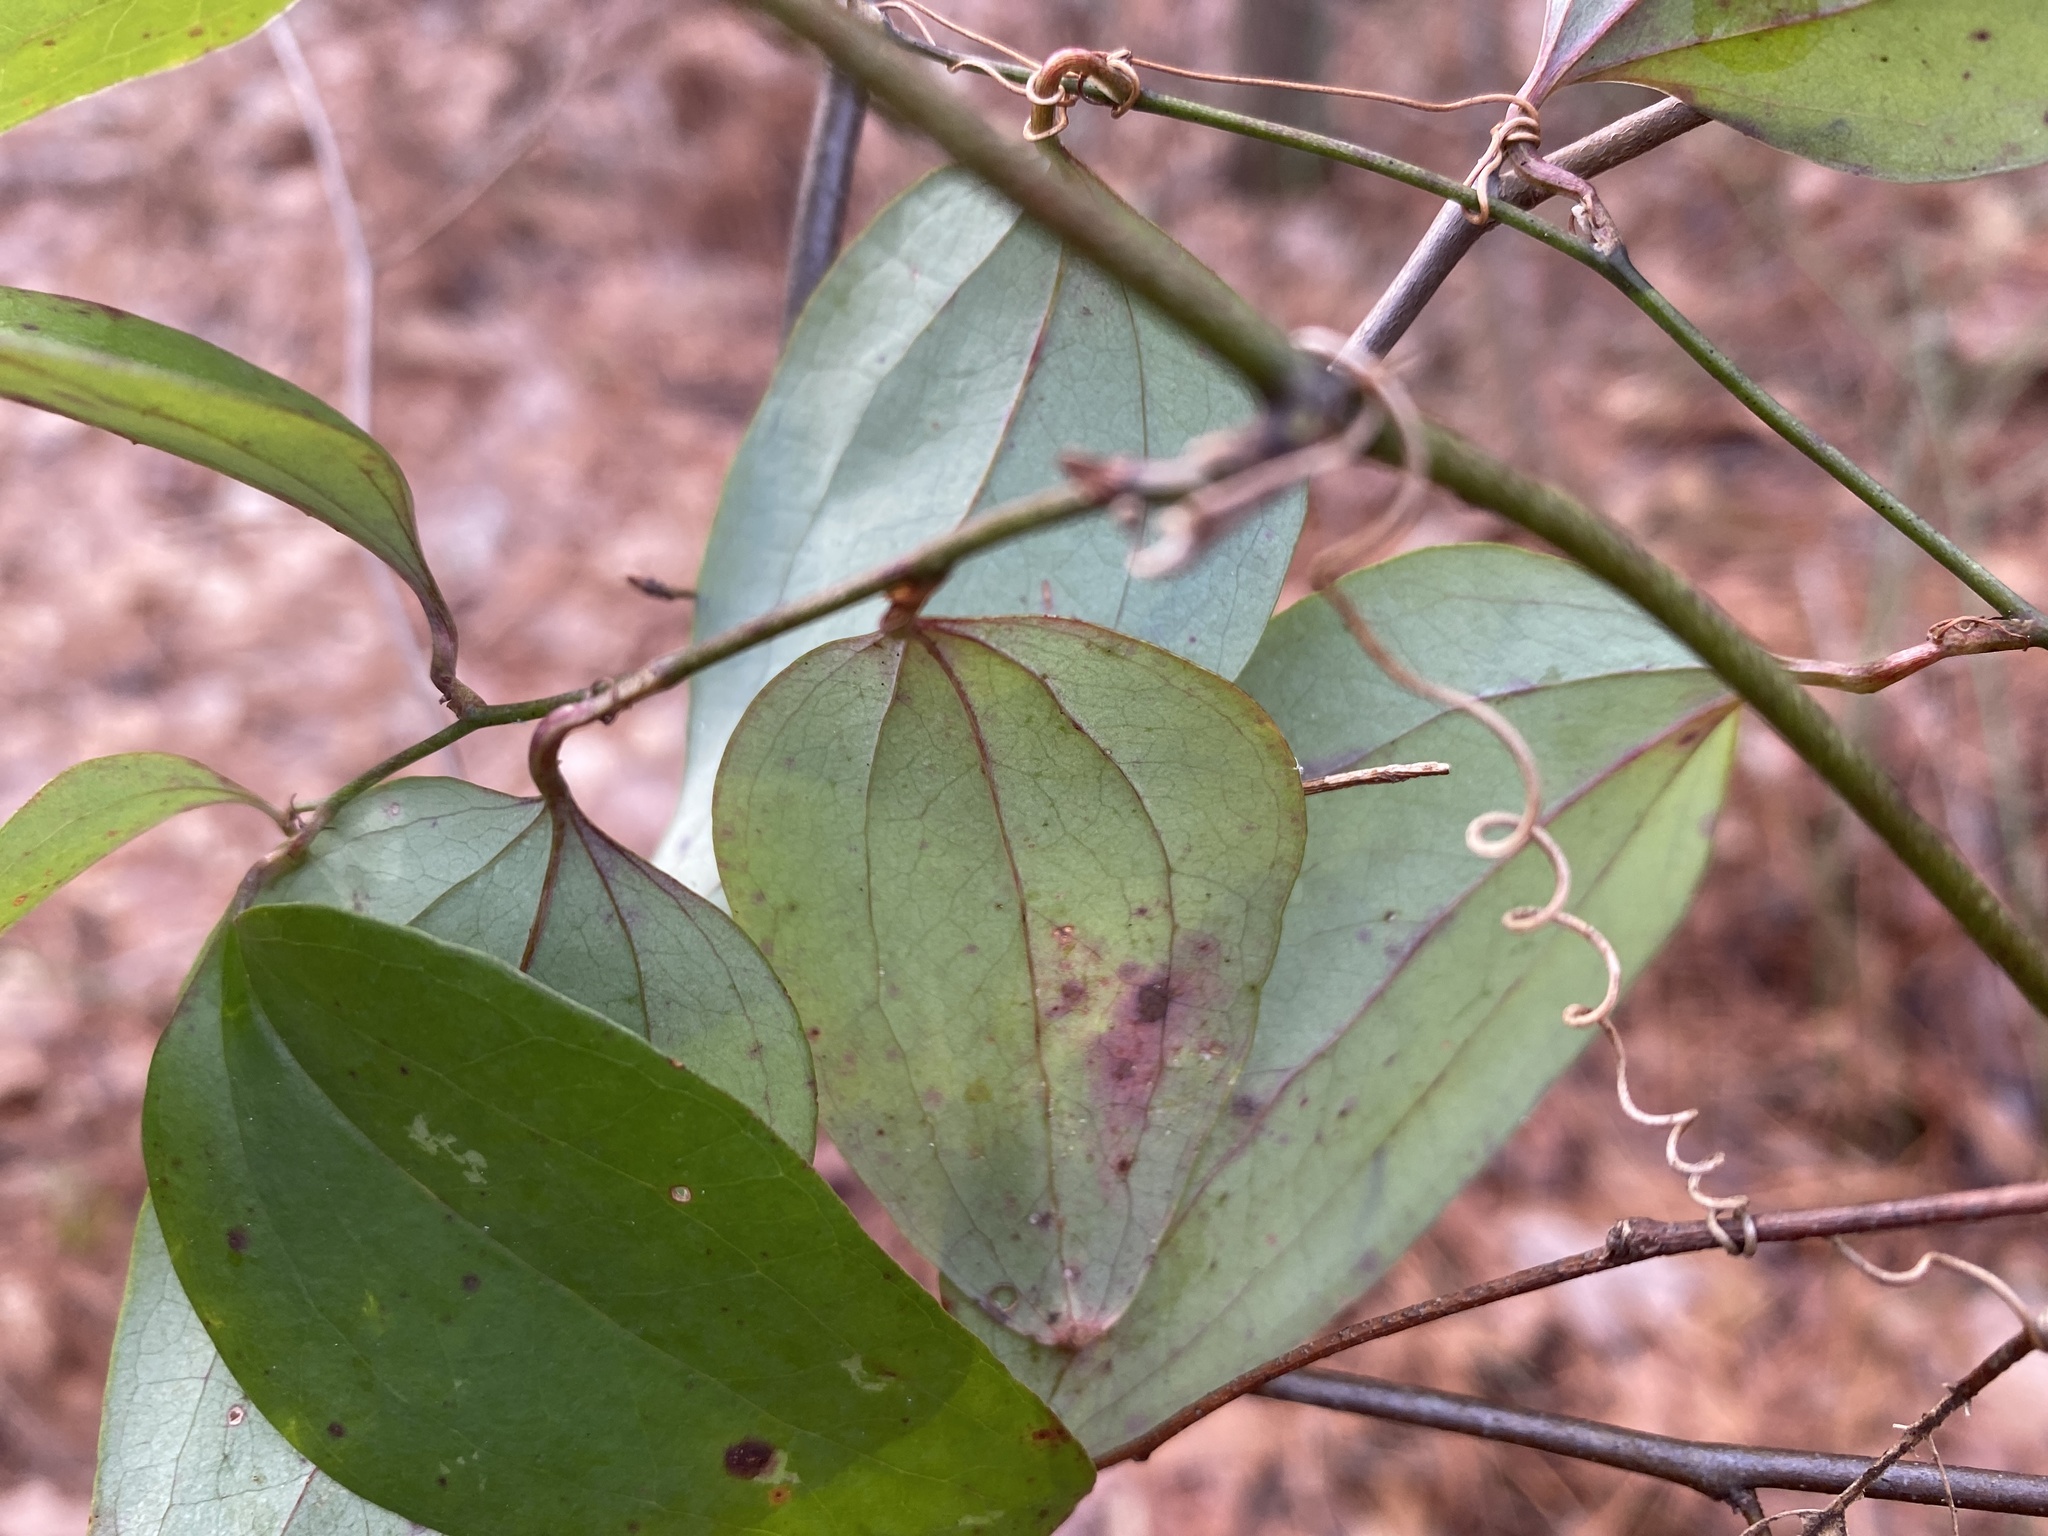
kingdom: Plantae
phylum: Tracheophyta
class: Liliopsida
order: Liliales
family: Smilacaceae
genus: Smilax
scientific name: Smilax glauca
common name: Cat greenbrier
